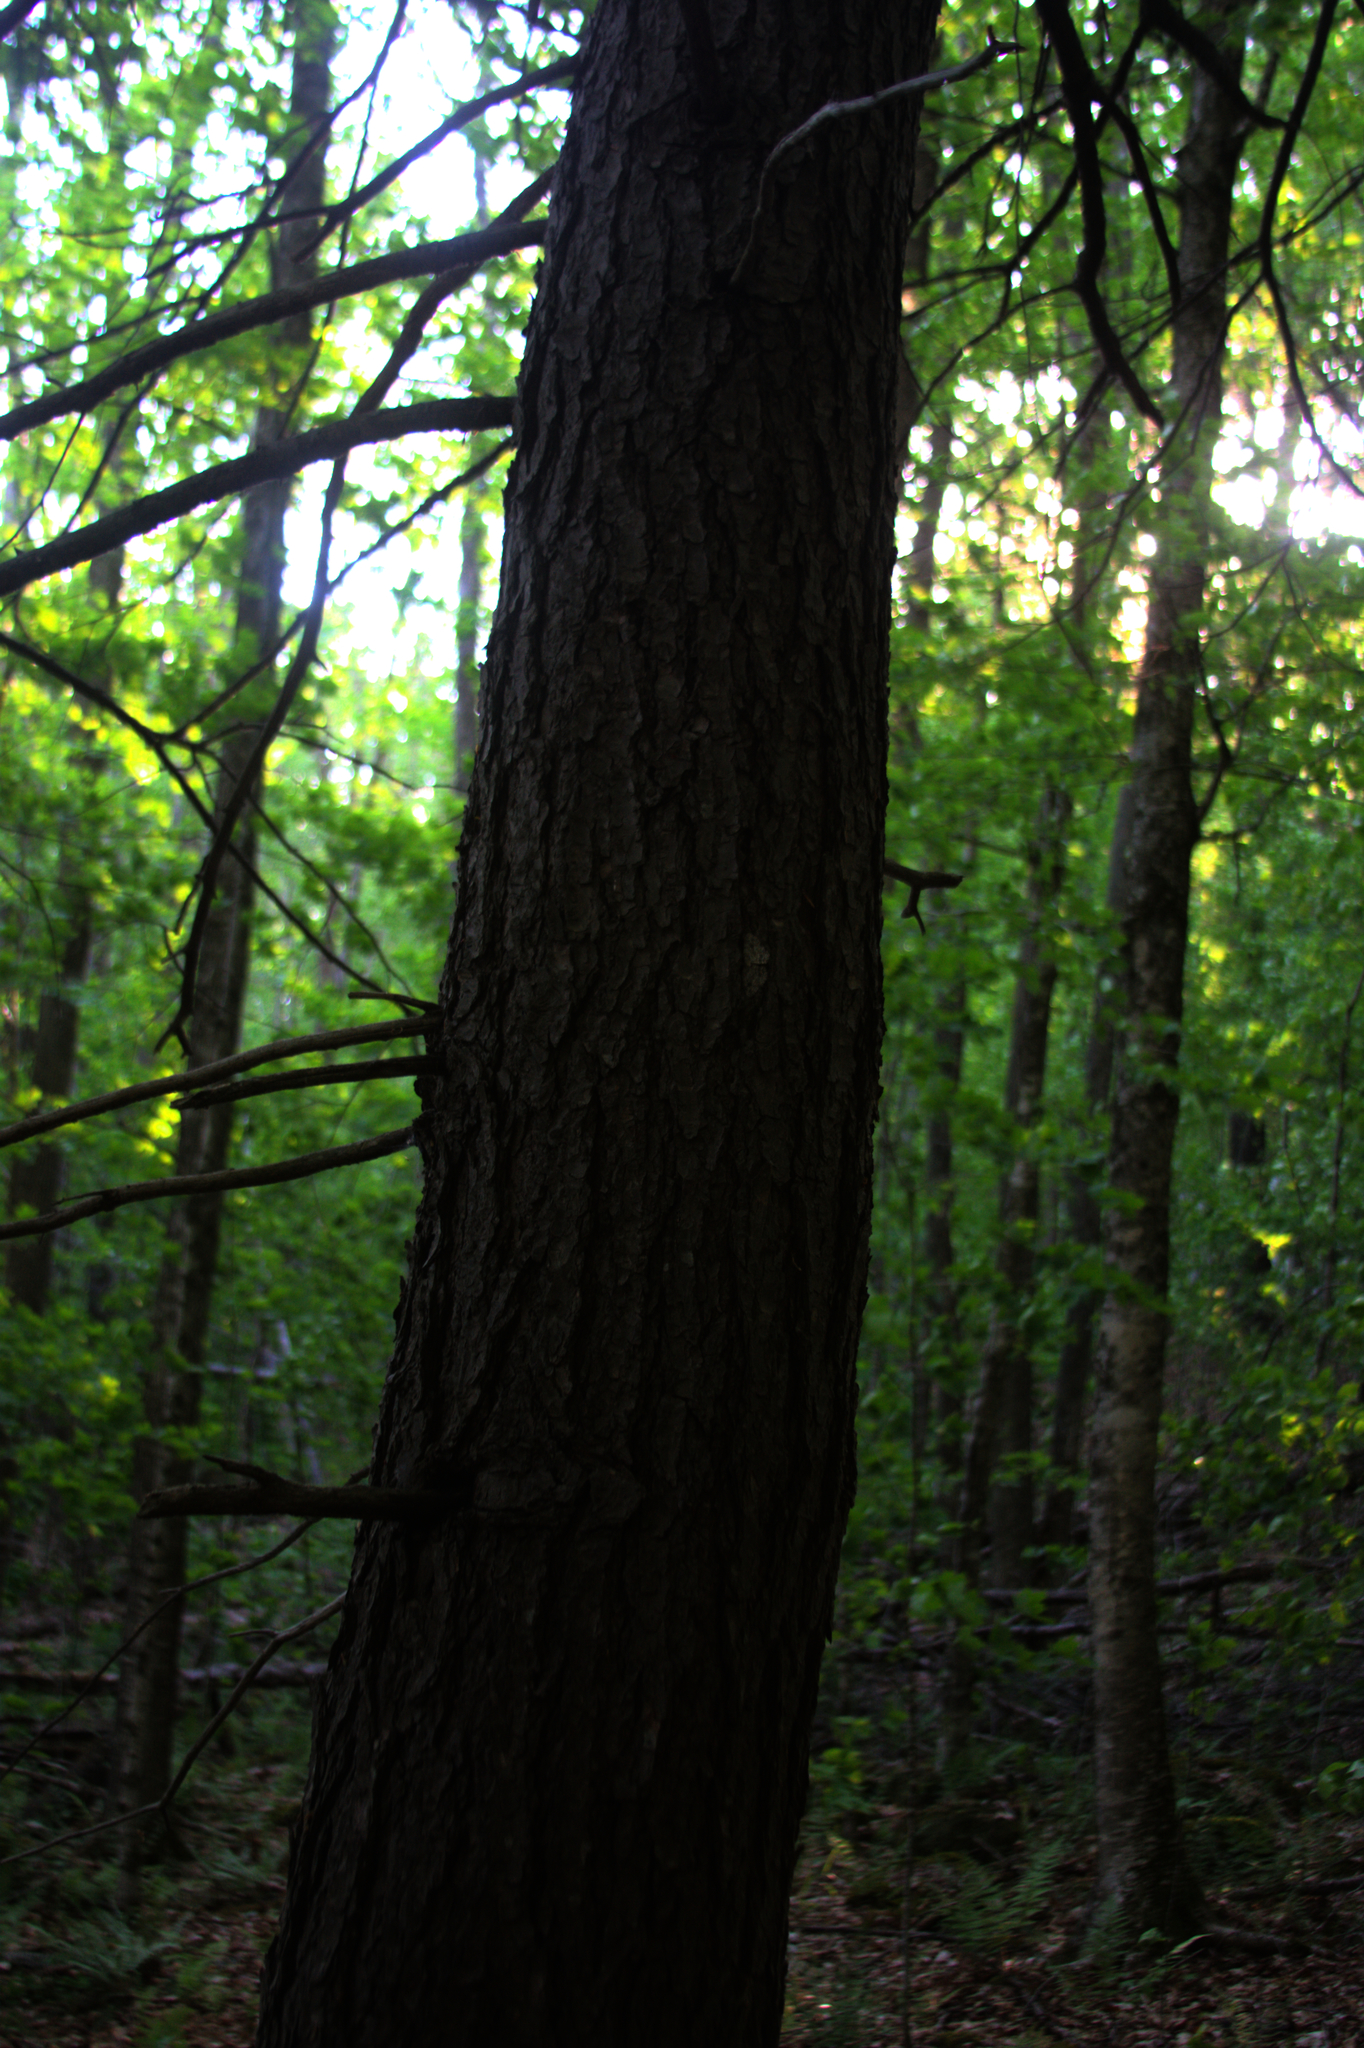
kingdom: Plantae
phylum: Tracheophyta
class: Pinopsida
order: Pinales
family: Pinaceae
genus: Tsuga
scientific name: Tsuga canadensis
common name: Eastern hemlock
